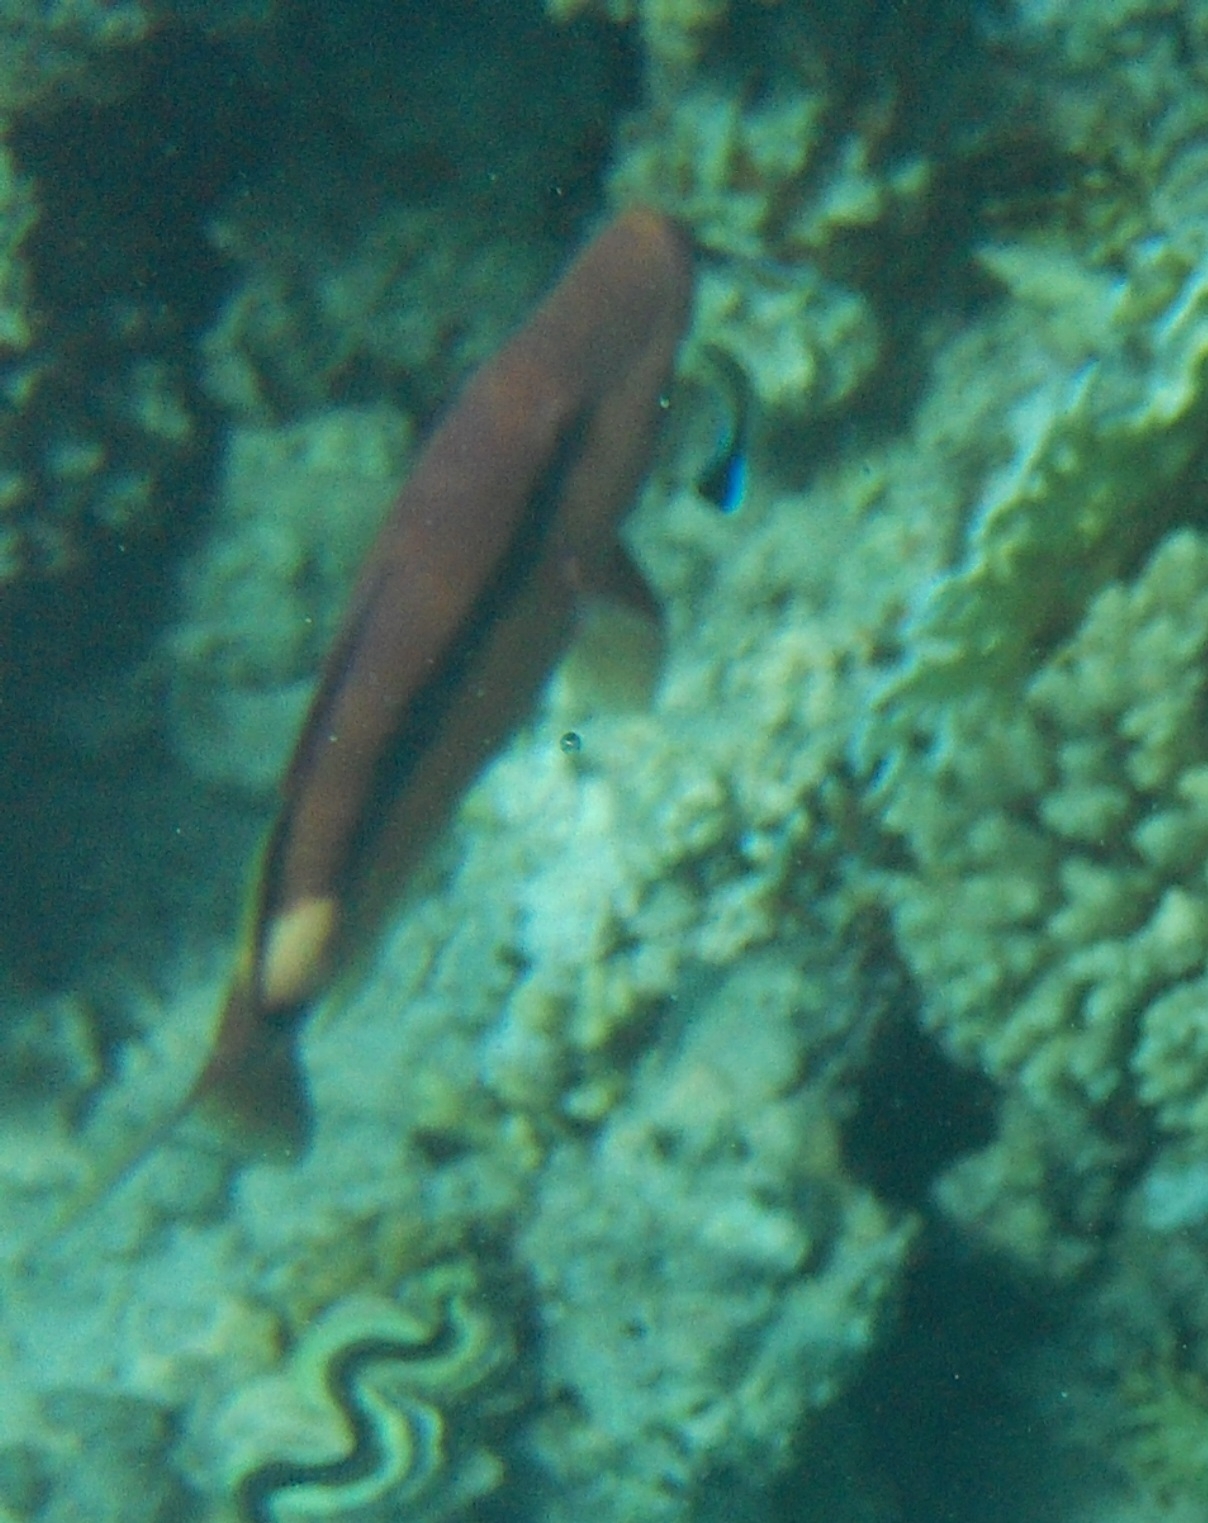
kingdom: Animalia
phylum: Chordata
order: Perciformes
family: Mullidae
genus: Parupeneus
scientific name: Parupeneus macronemus
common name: Long-barbel goatfish
